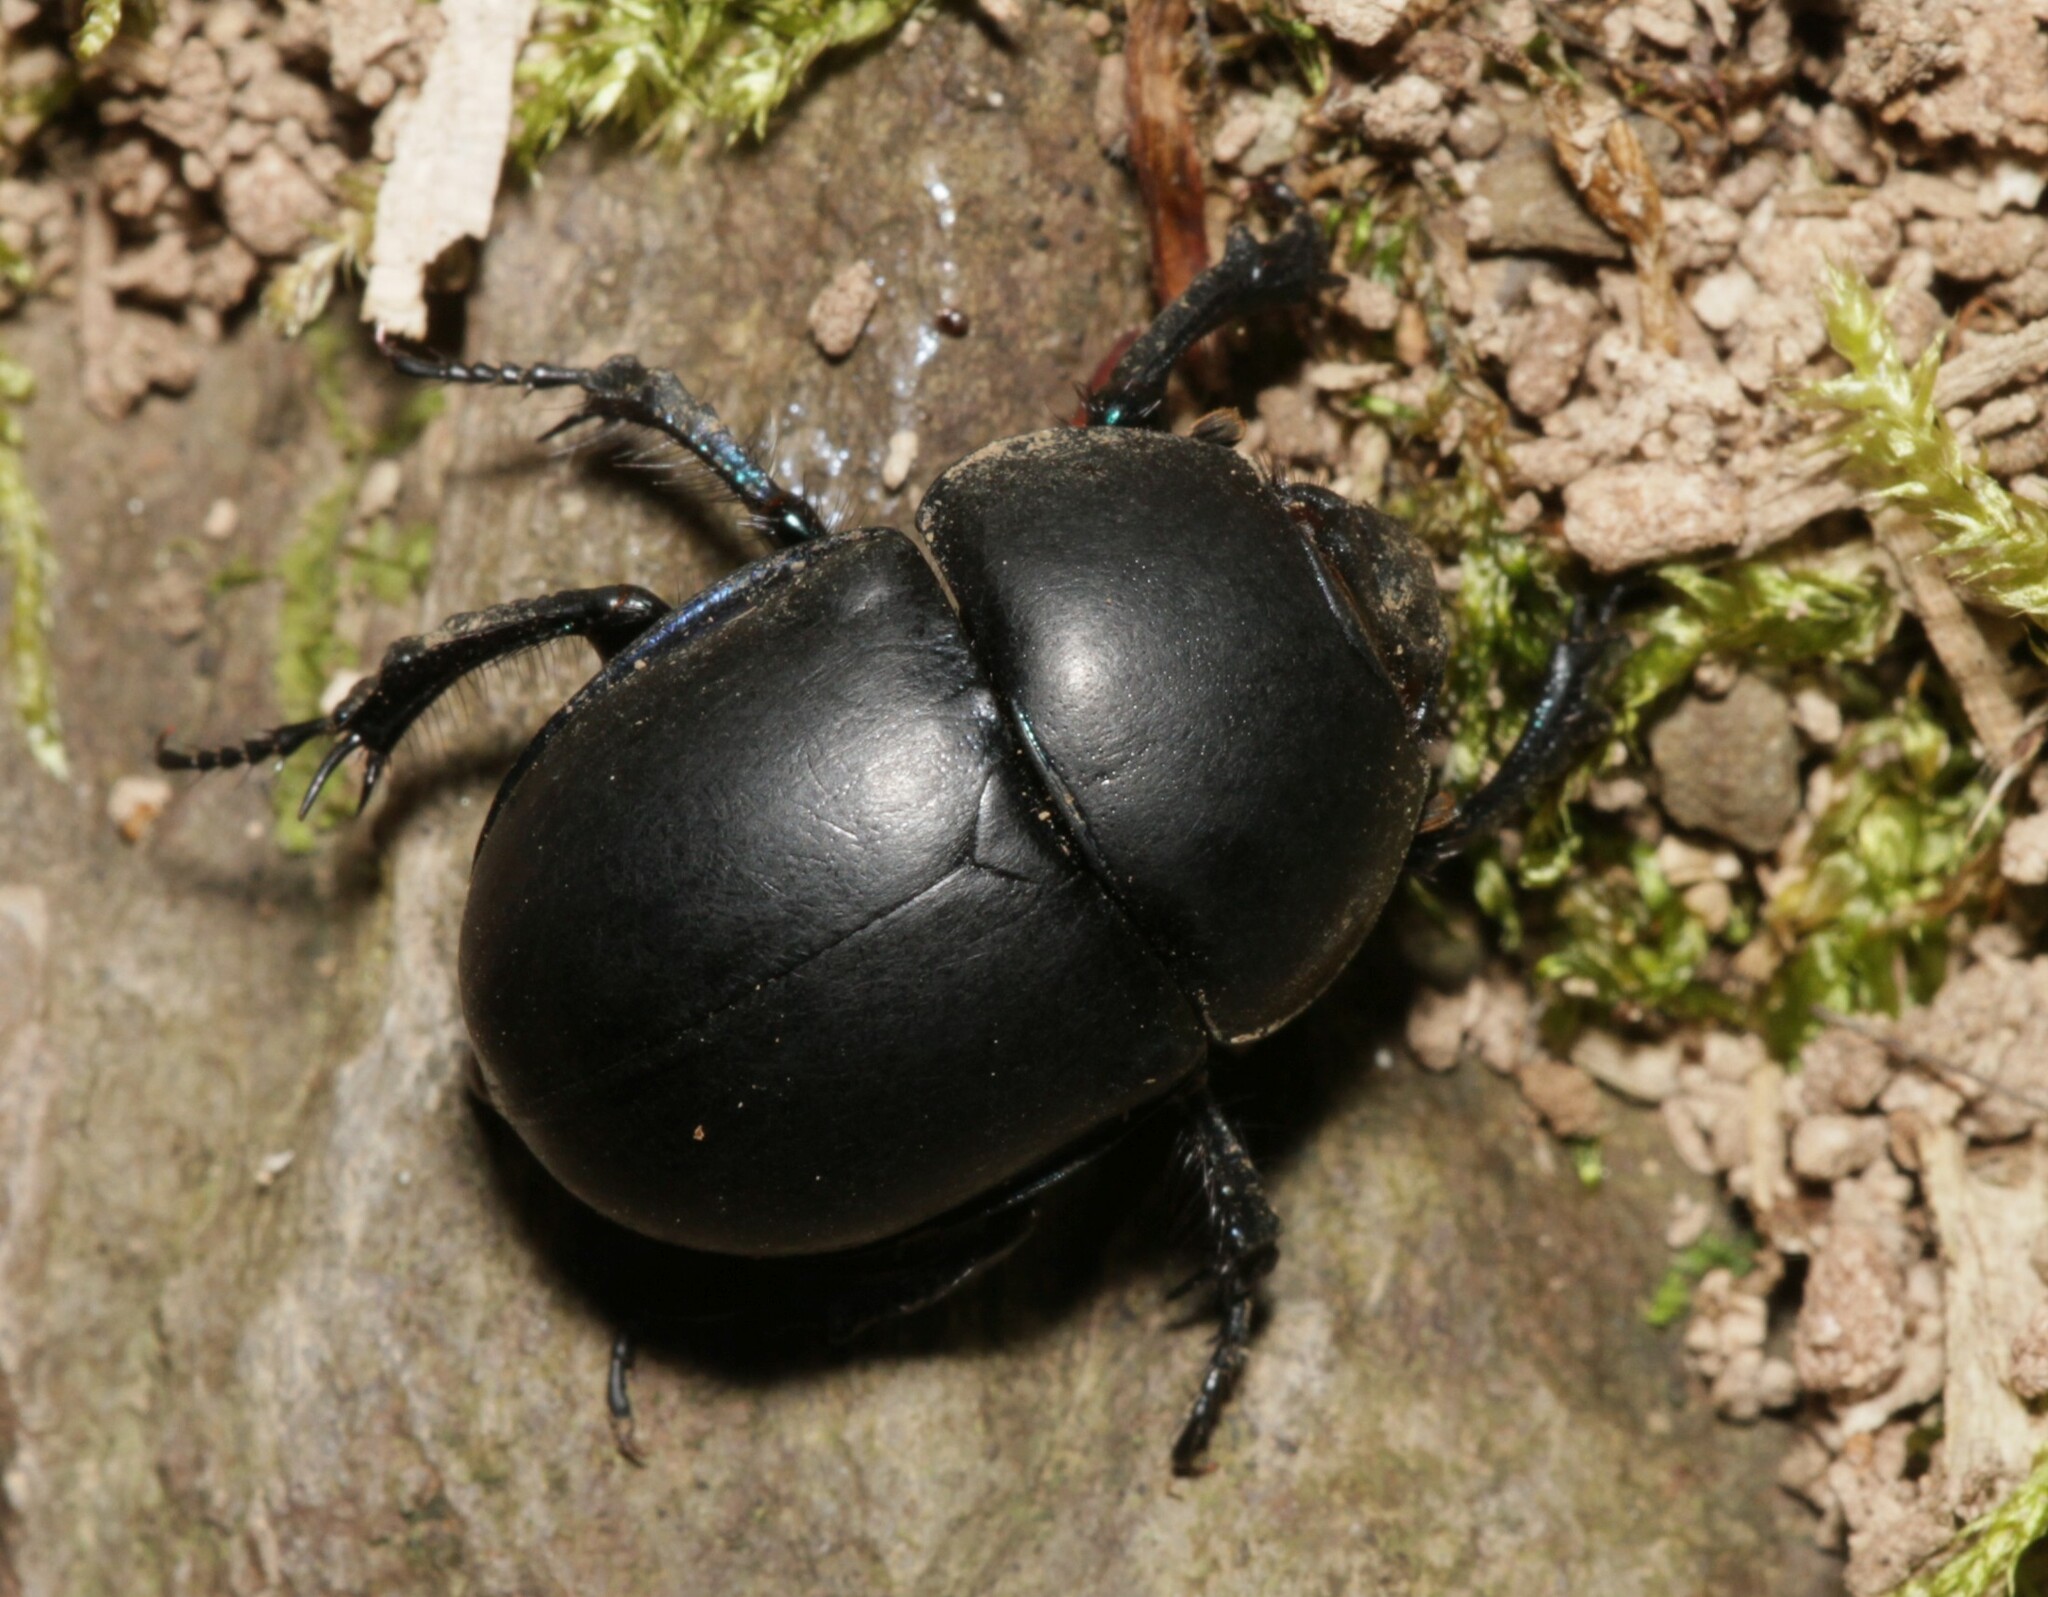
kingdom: Animalia
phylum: Arthropoda
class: Insecta
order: Coleoptera
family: Geotrupidae
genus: Trypocopris
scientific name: Trypocopris vernalis
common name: Spring dumbledor
